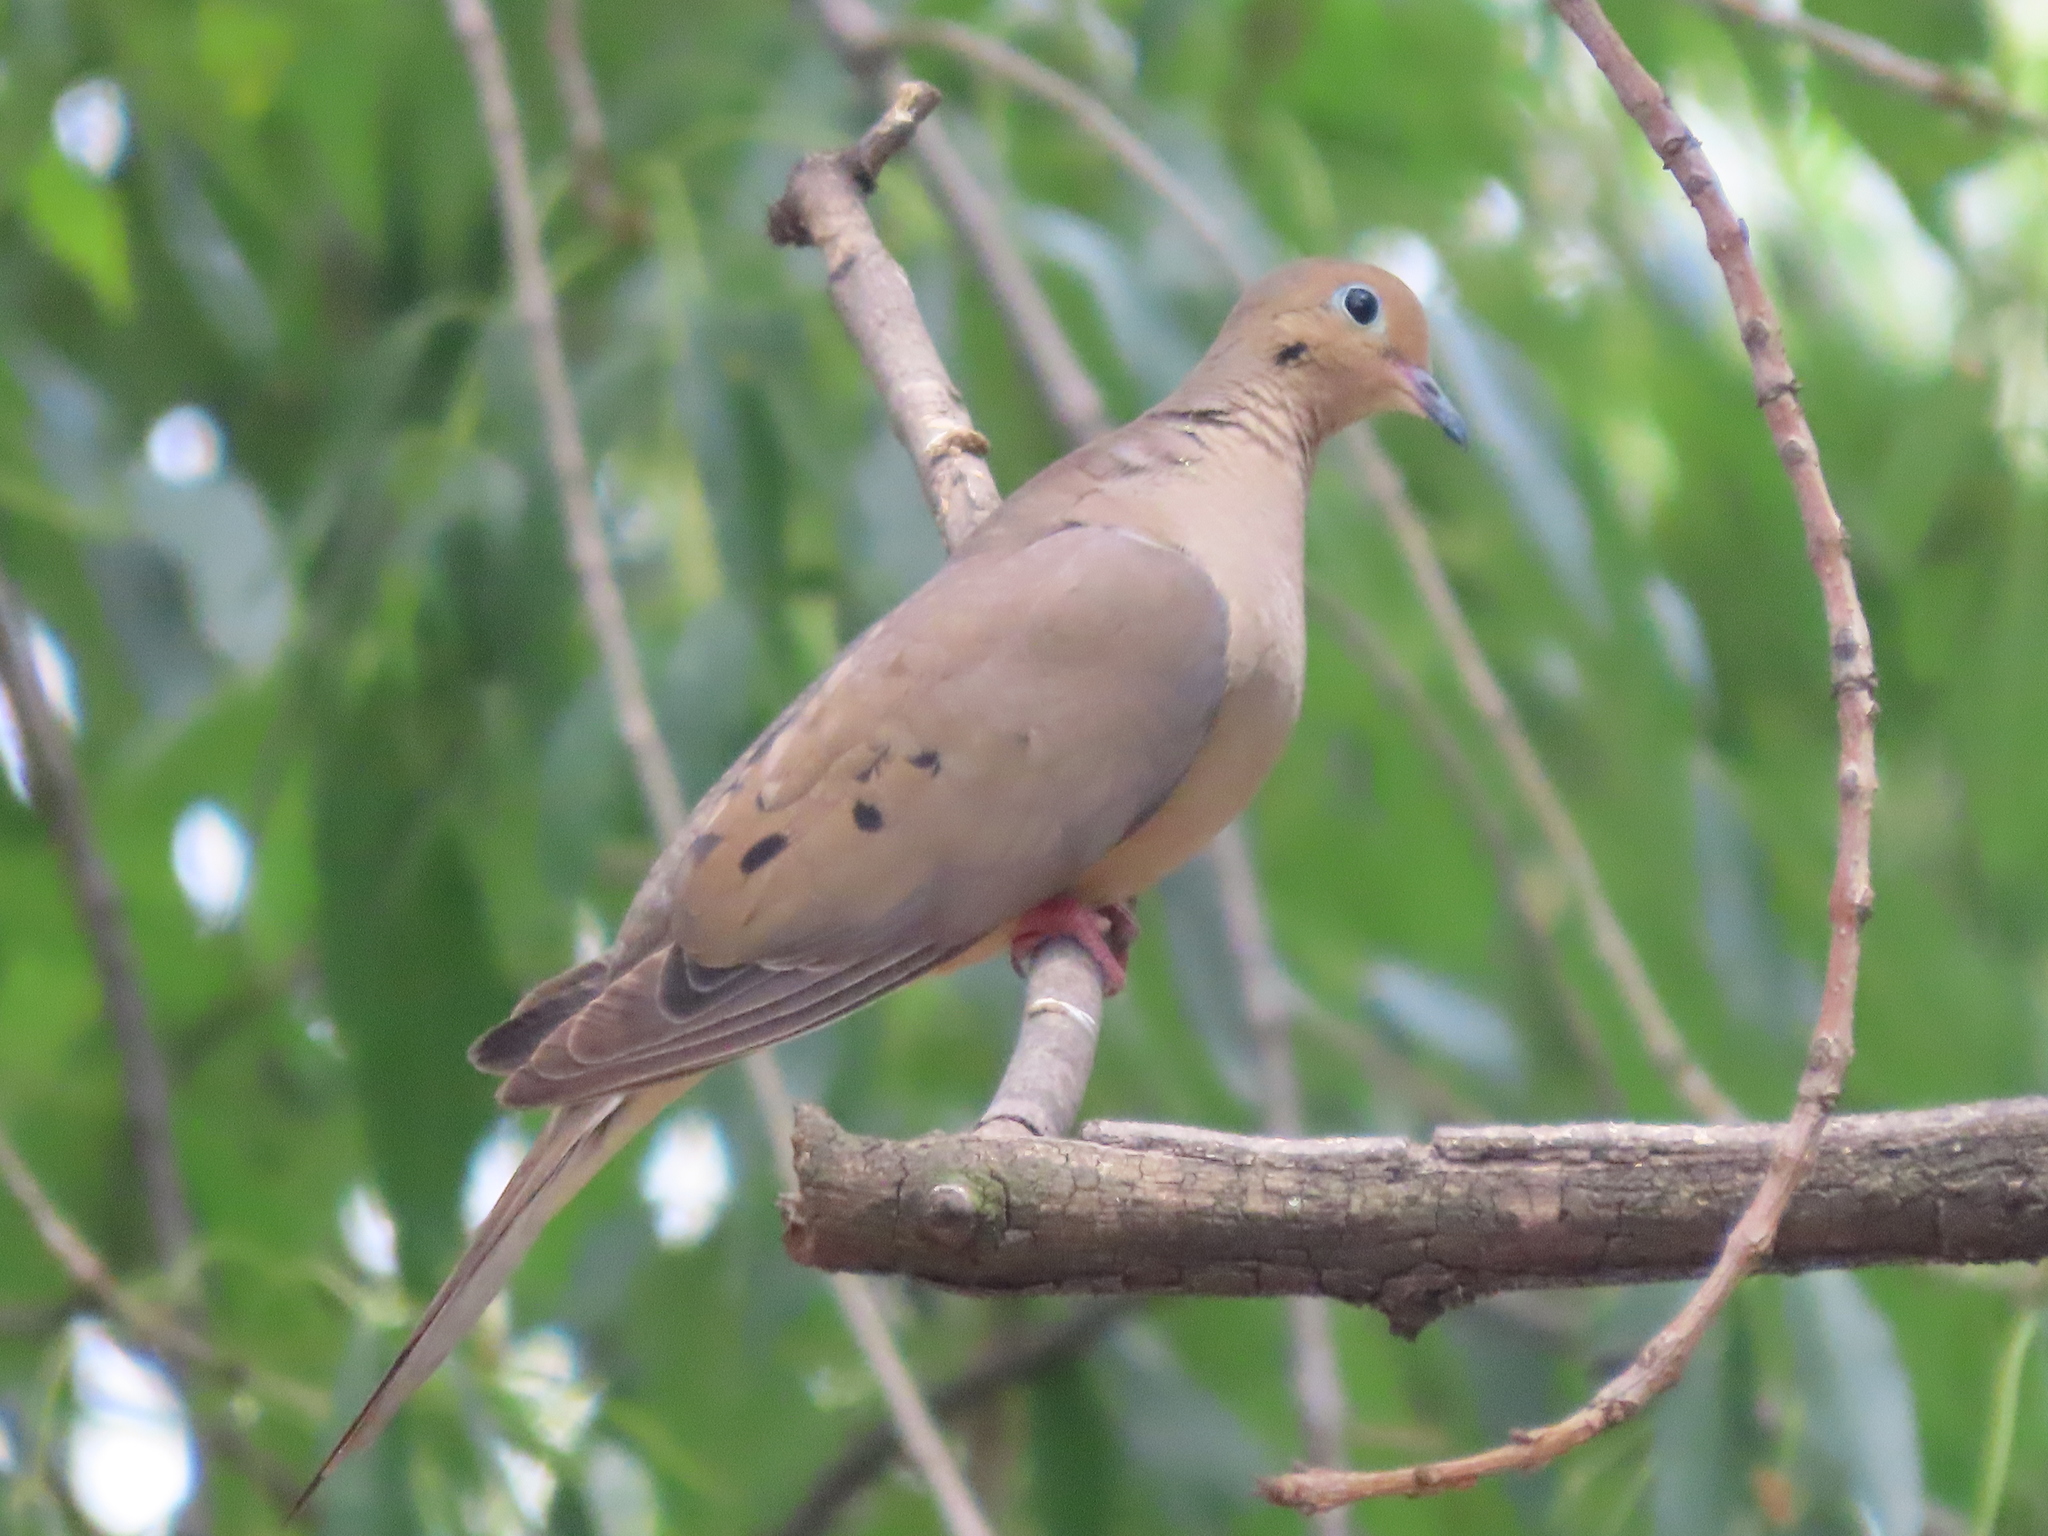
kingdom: Animalia
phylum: Chordata
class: Aves
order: Columbiformes
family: Columbidae
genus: Zenaida
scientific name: Zenaida macroura
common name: Mourning dove
